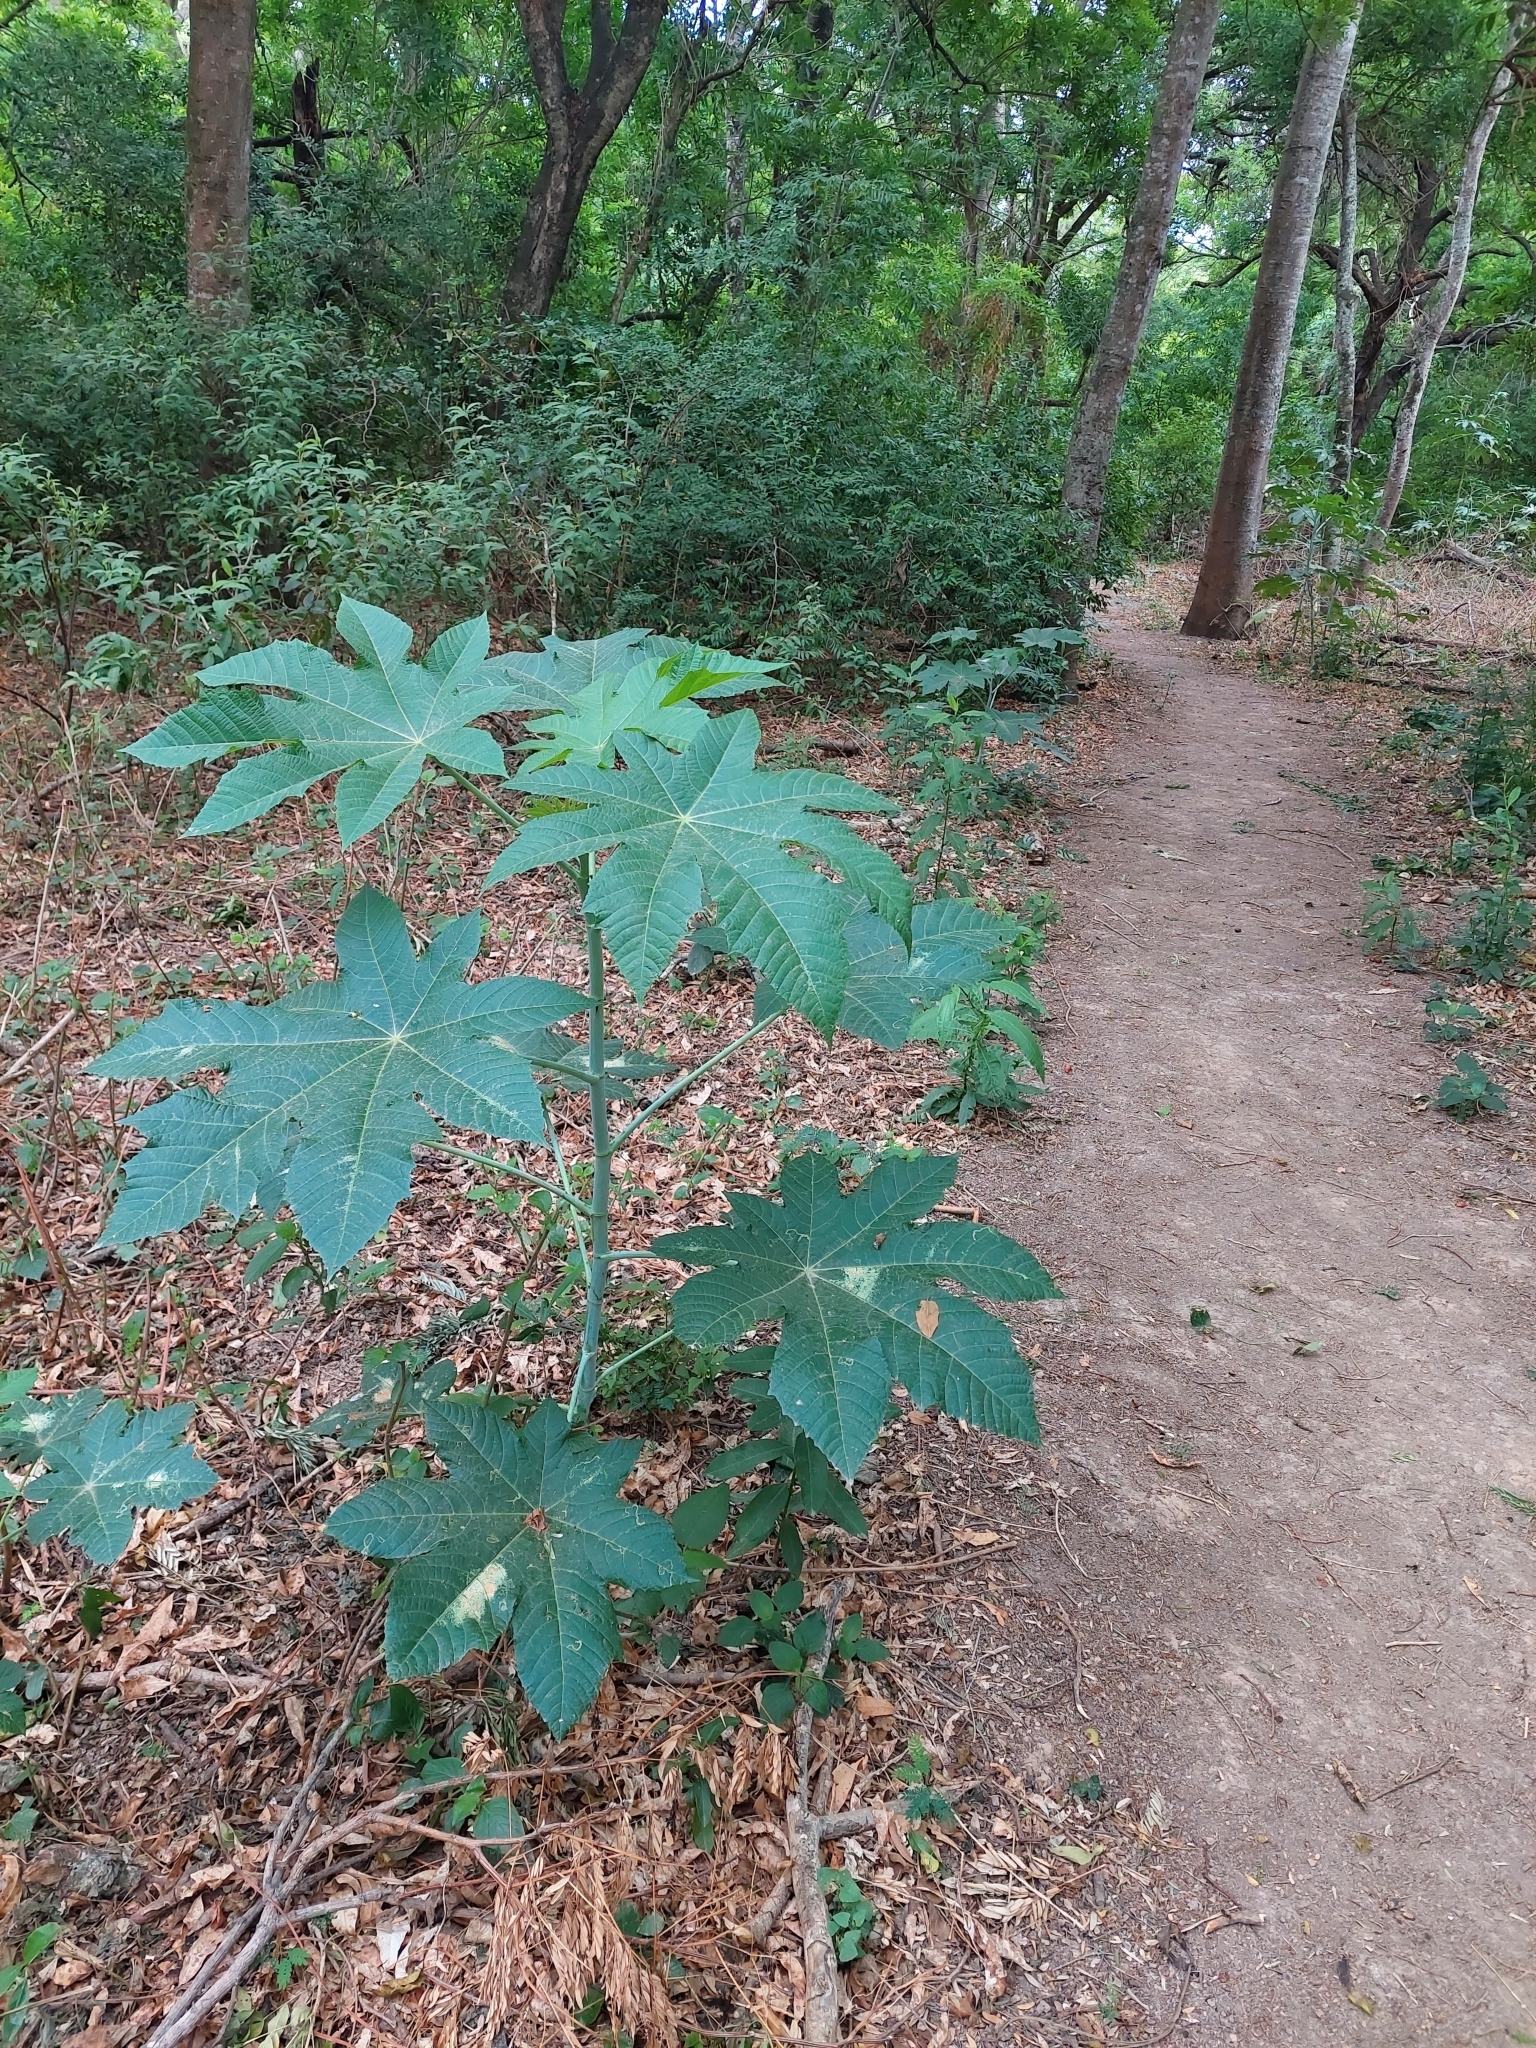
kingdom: Plantae
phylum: Tracheophyta
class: Magnoliopsida
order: Malpighiales
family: Euphorbiaceae
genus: Ricinus
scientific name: Ricinus communis
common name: Castor-oil-plant
